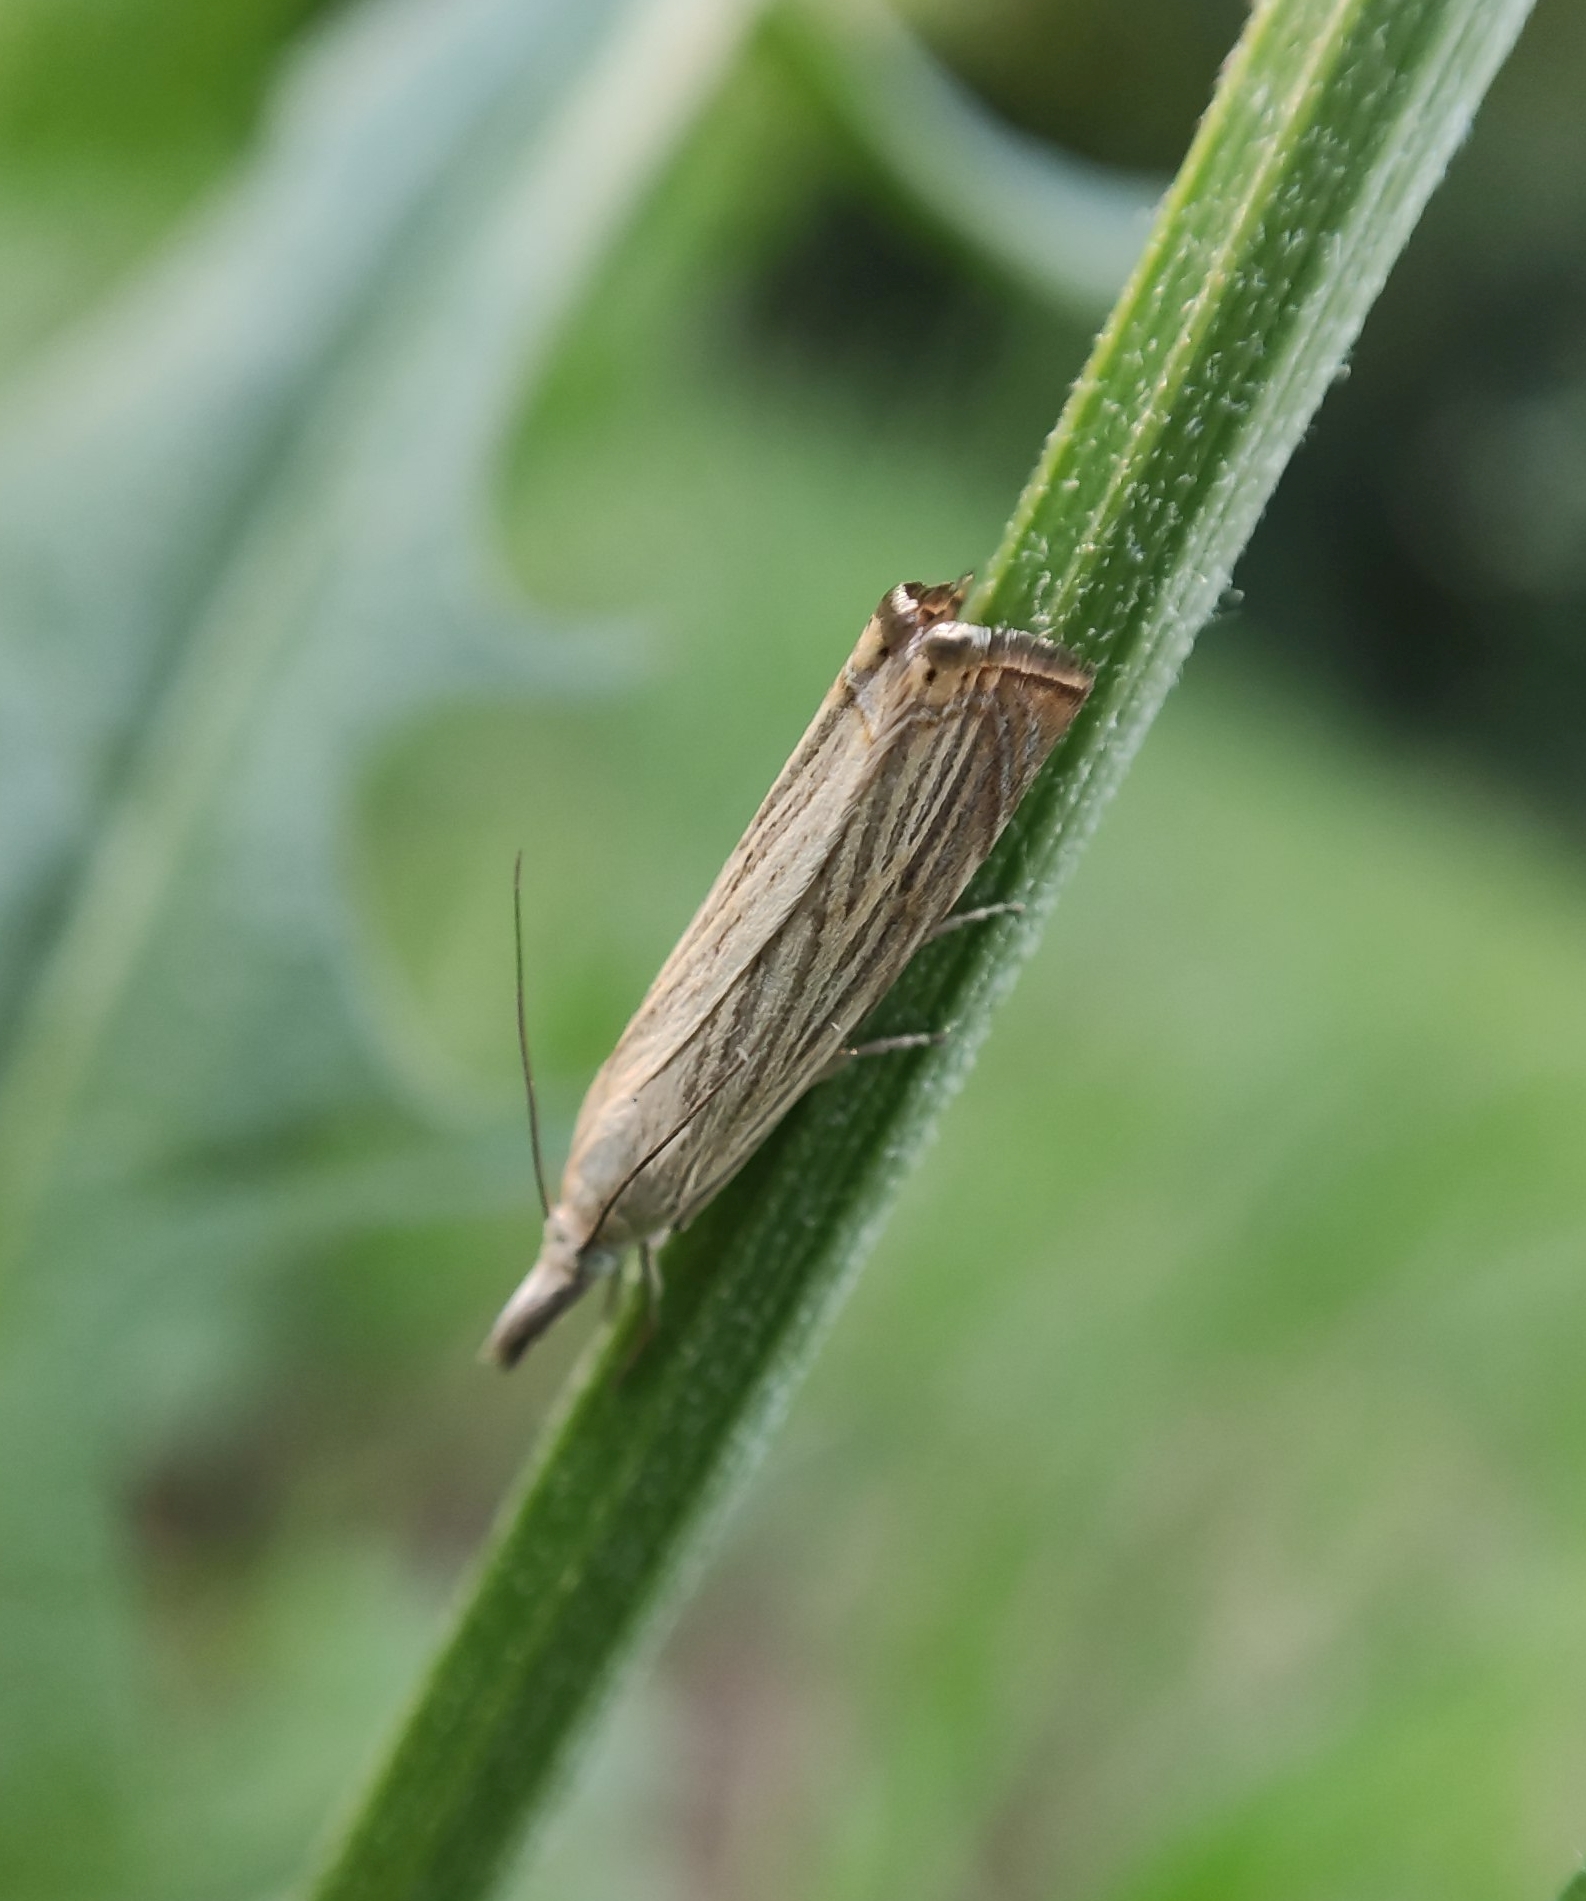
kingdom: Animalia
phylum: Arthropoda
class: Insecta
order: Lepidoptera
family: Crambidae
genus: Chrysoteuchia
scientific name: Chrysoteuchia culmella
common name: Garden grass-veneer
